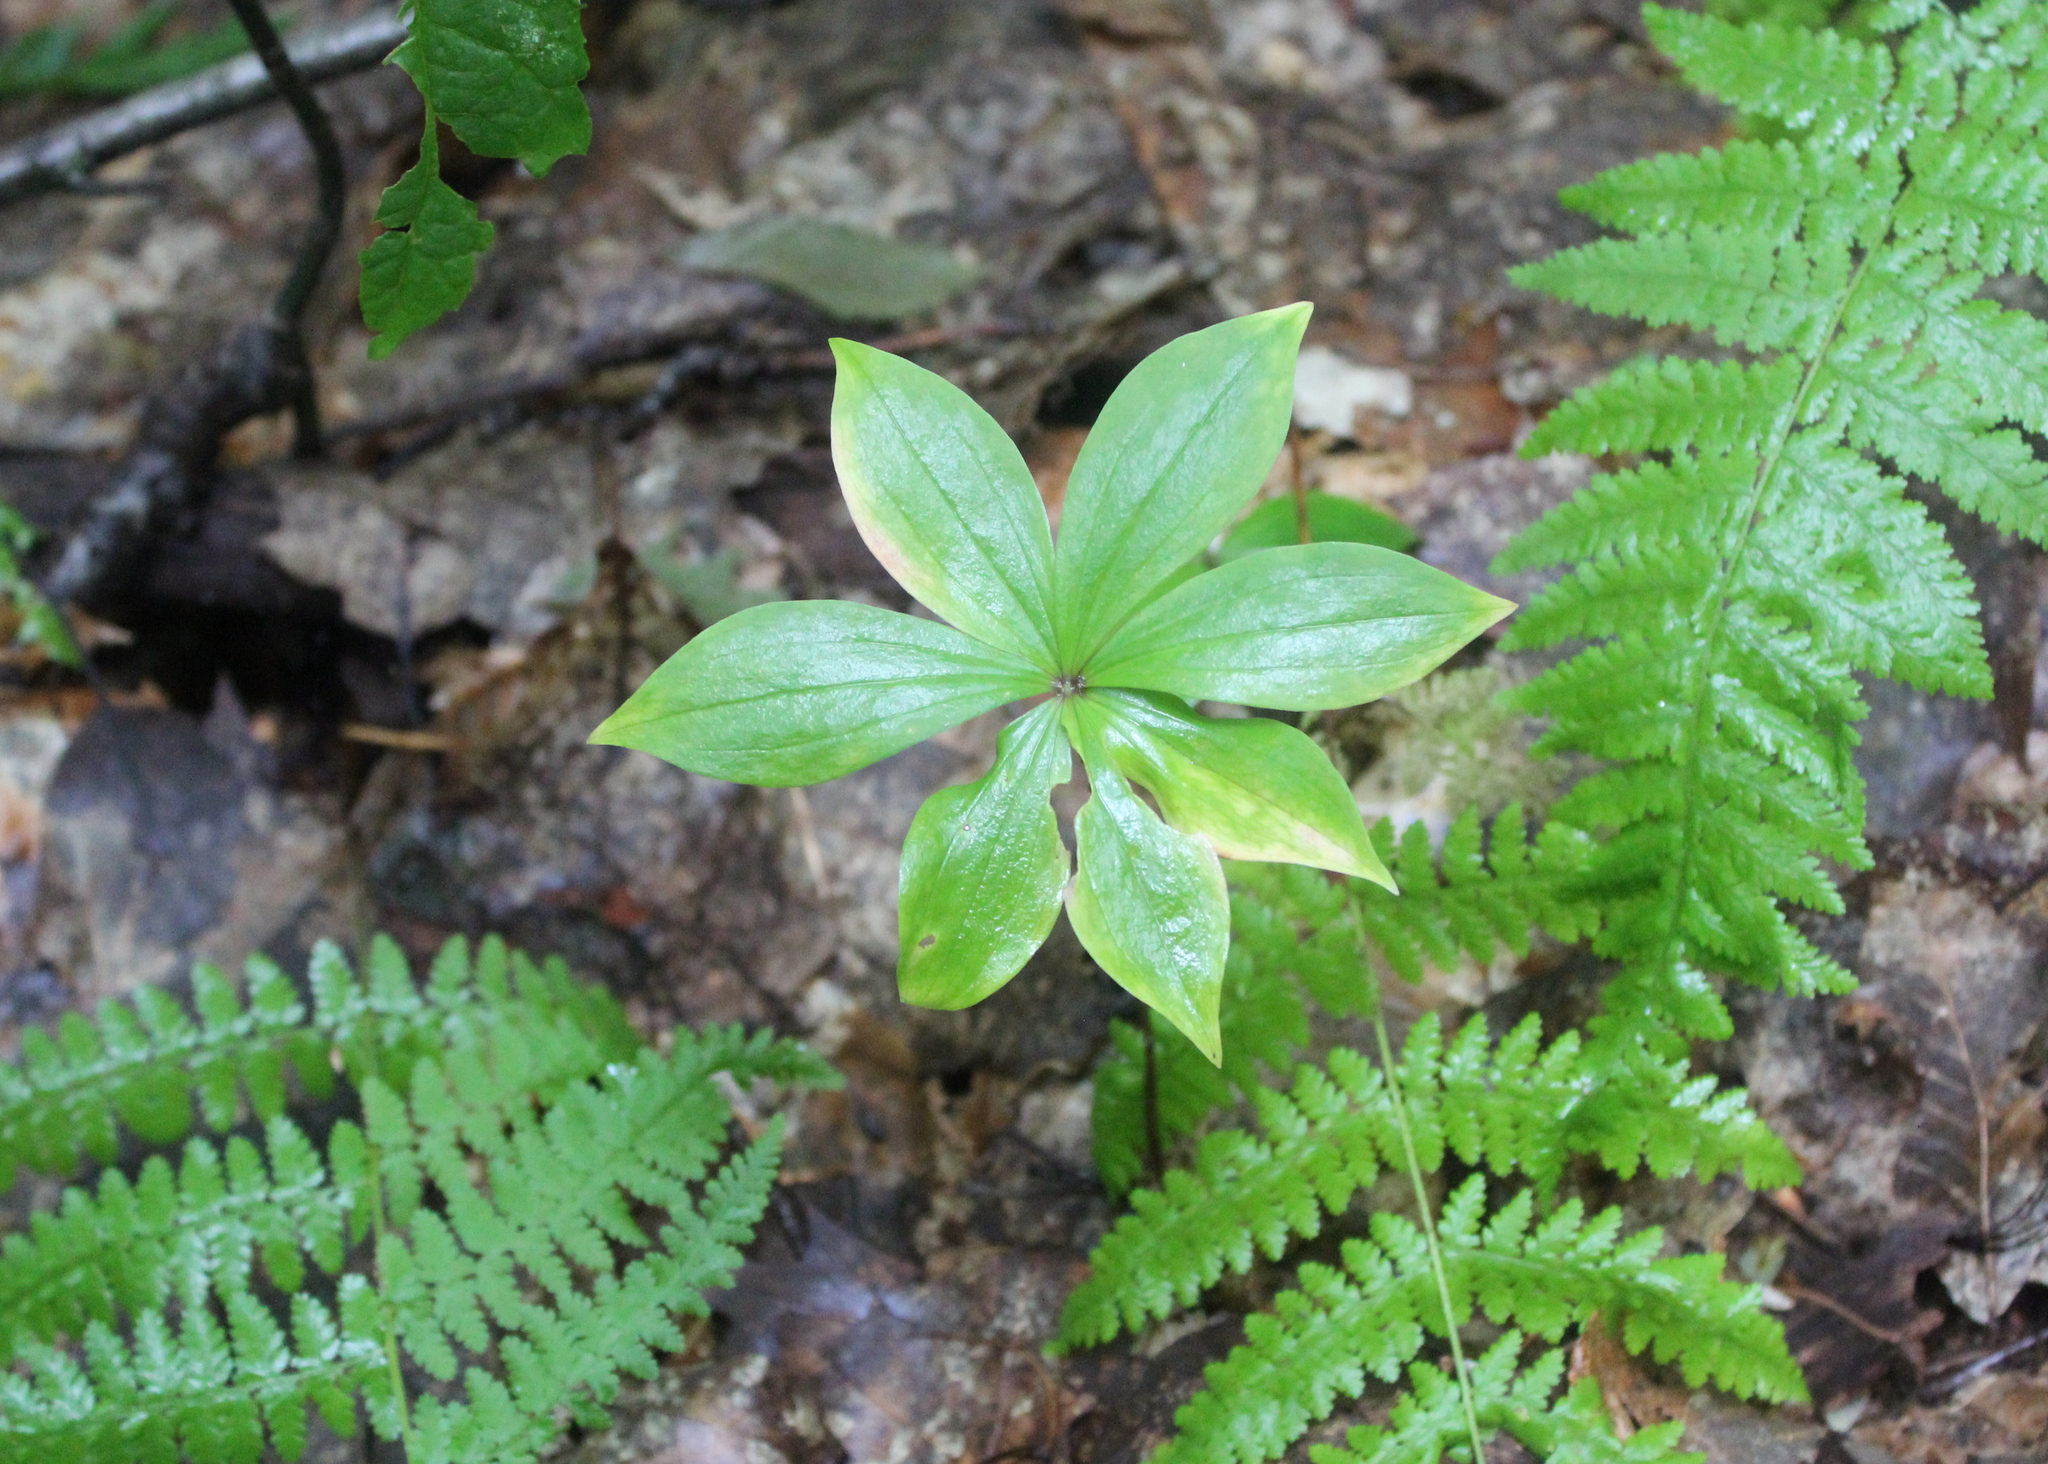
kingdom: Plantae
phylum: Tracheophyta
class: Liliopsida
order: Liliales
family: Liliaceae
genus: Medeola
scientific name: Medeola virginiana
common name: Indian cucumber-root
